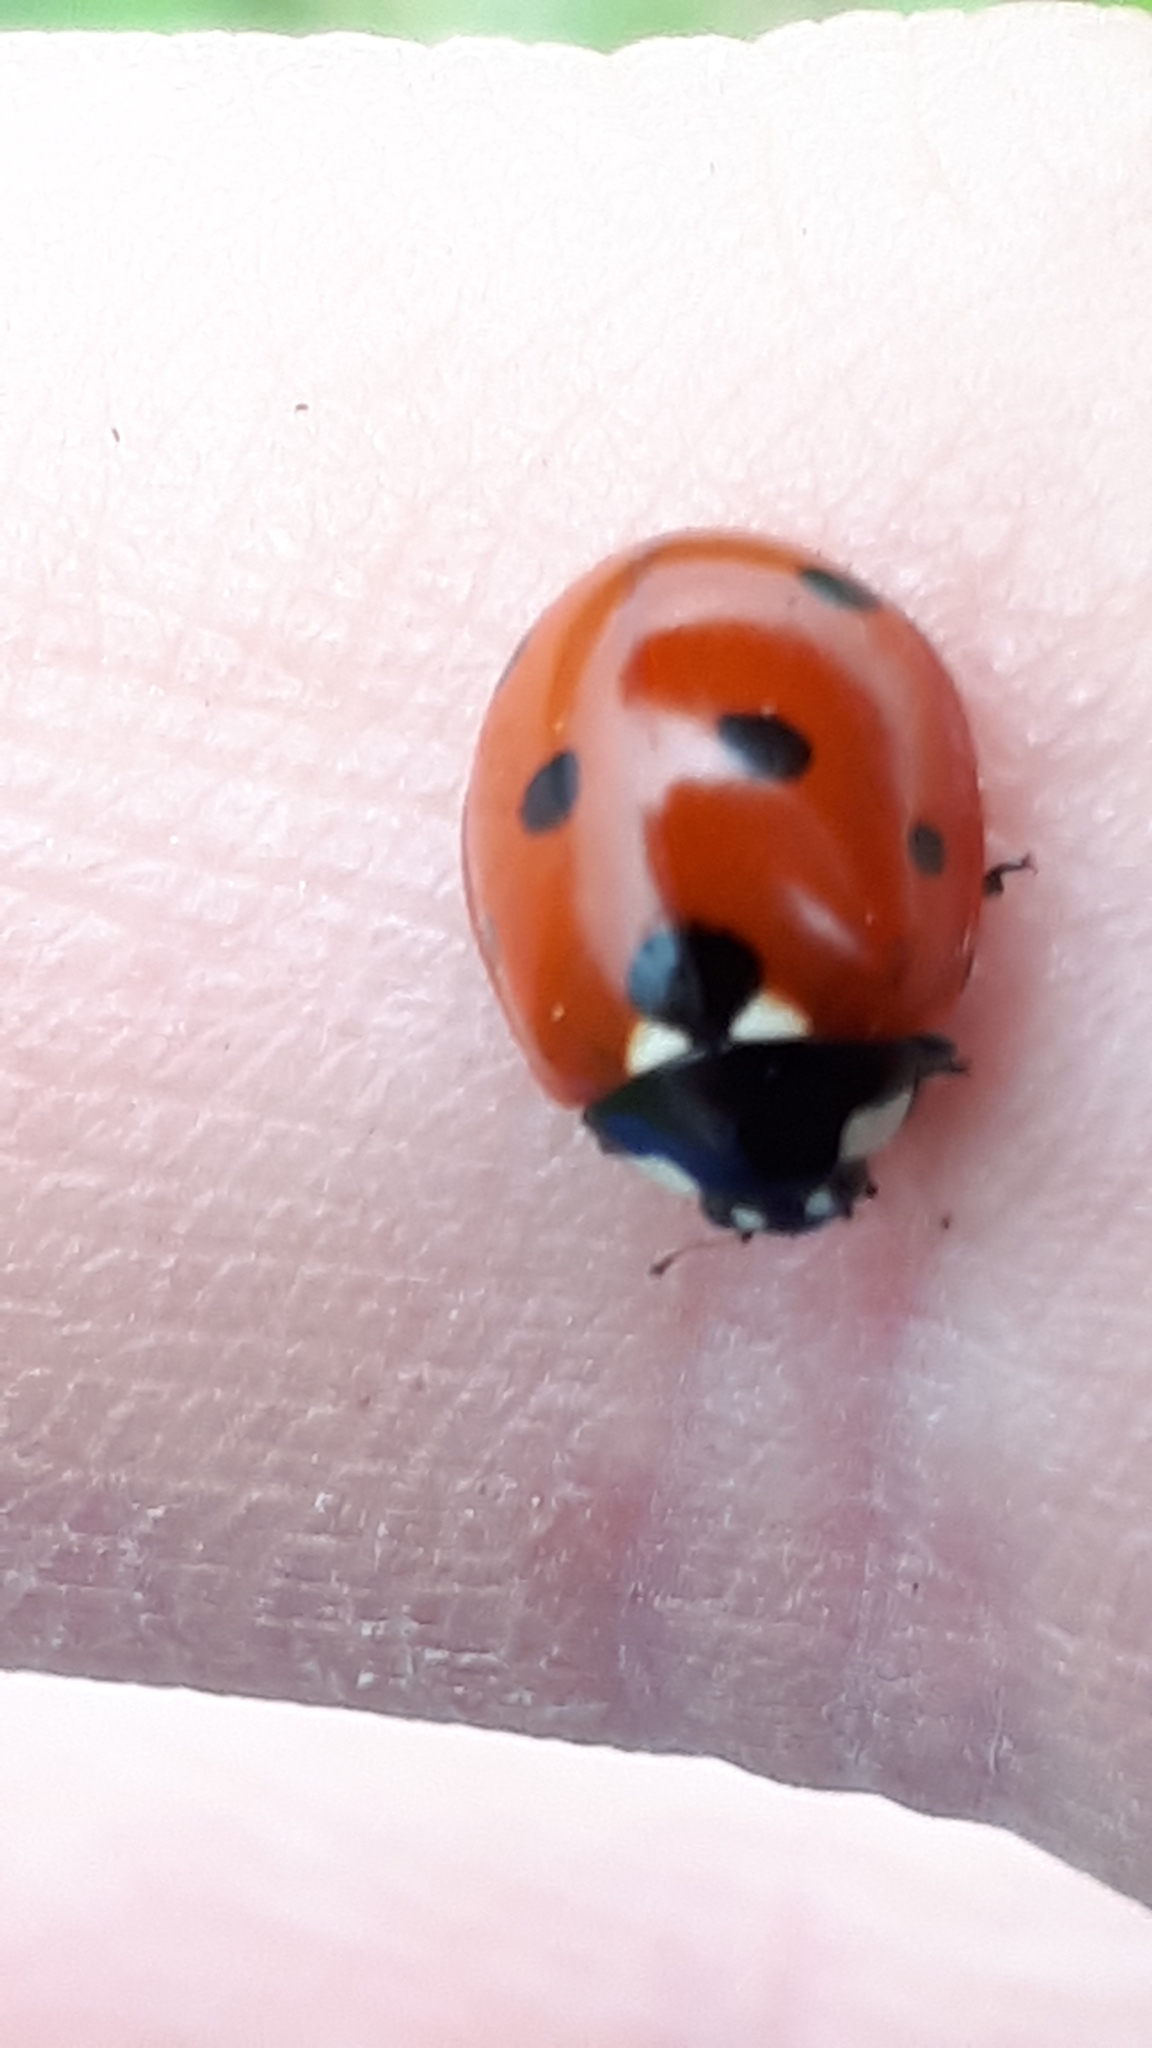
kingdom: Animalia
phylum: Arthropoda
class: Insecta
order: Coleoptera
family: Coccinellidae
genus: Coccinella
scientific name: Coccinella septempunctata
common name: Sevenspotted lady beetle
